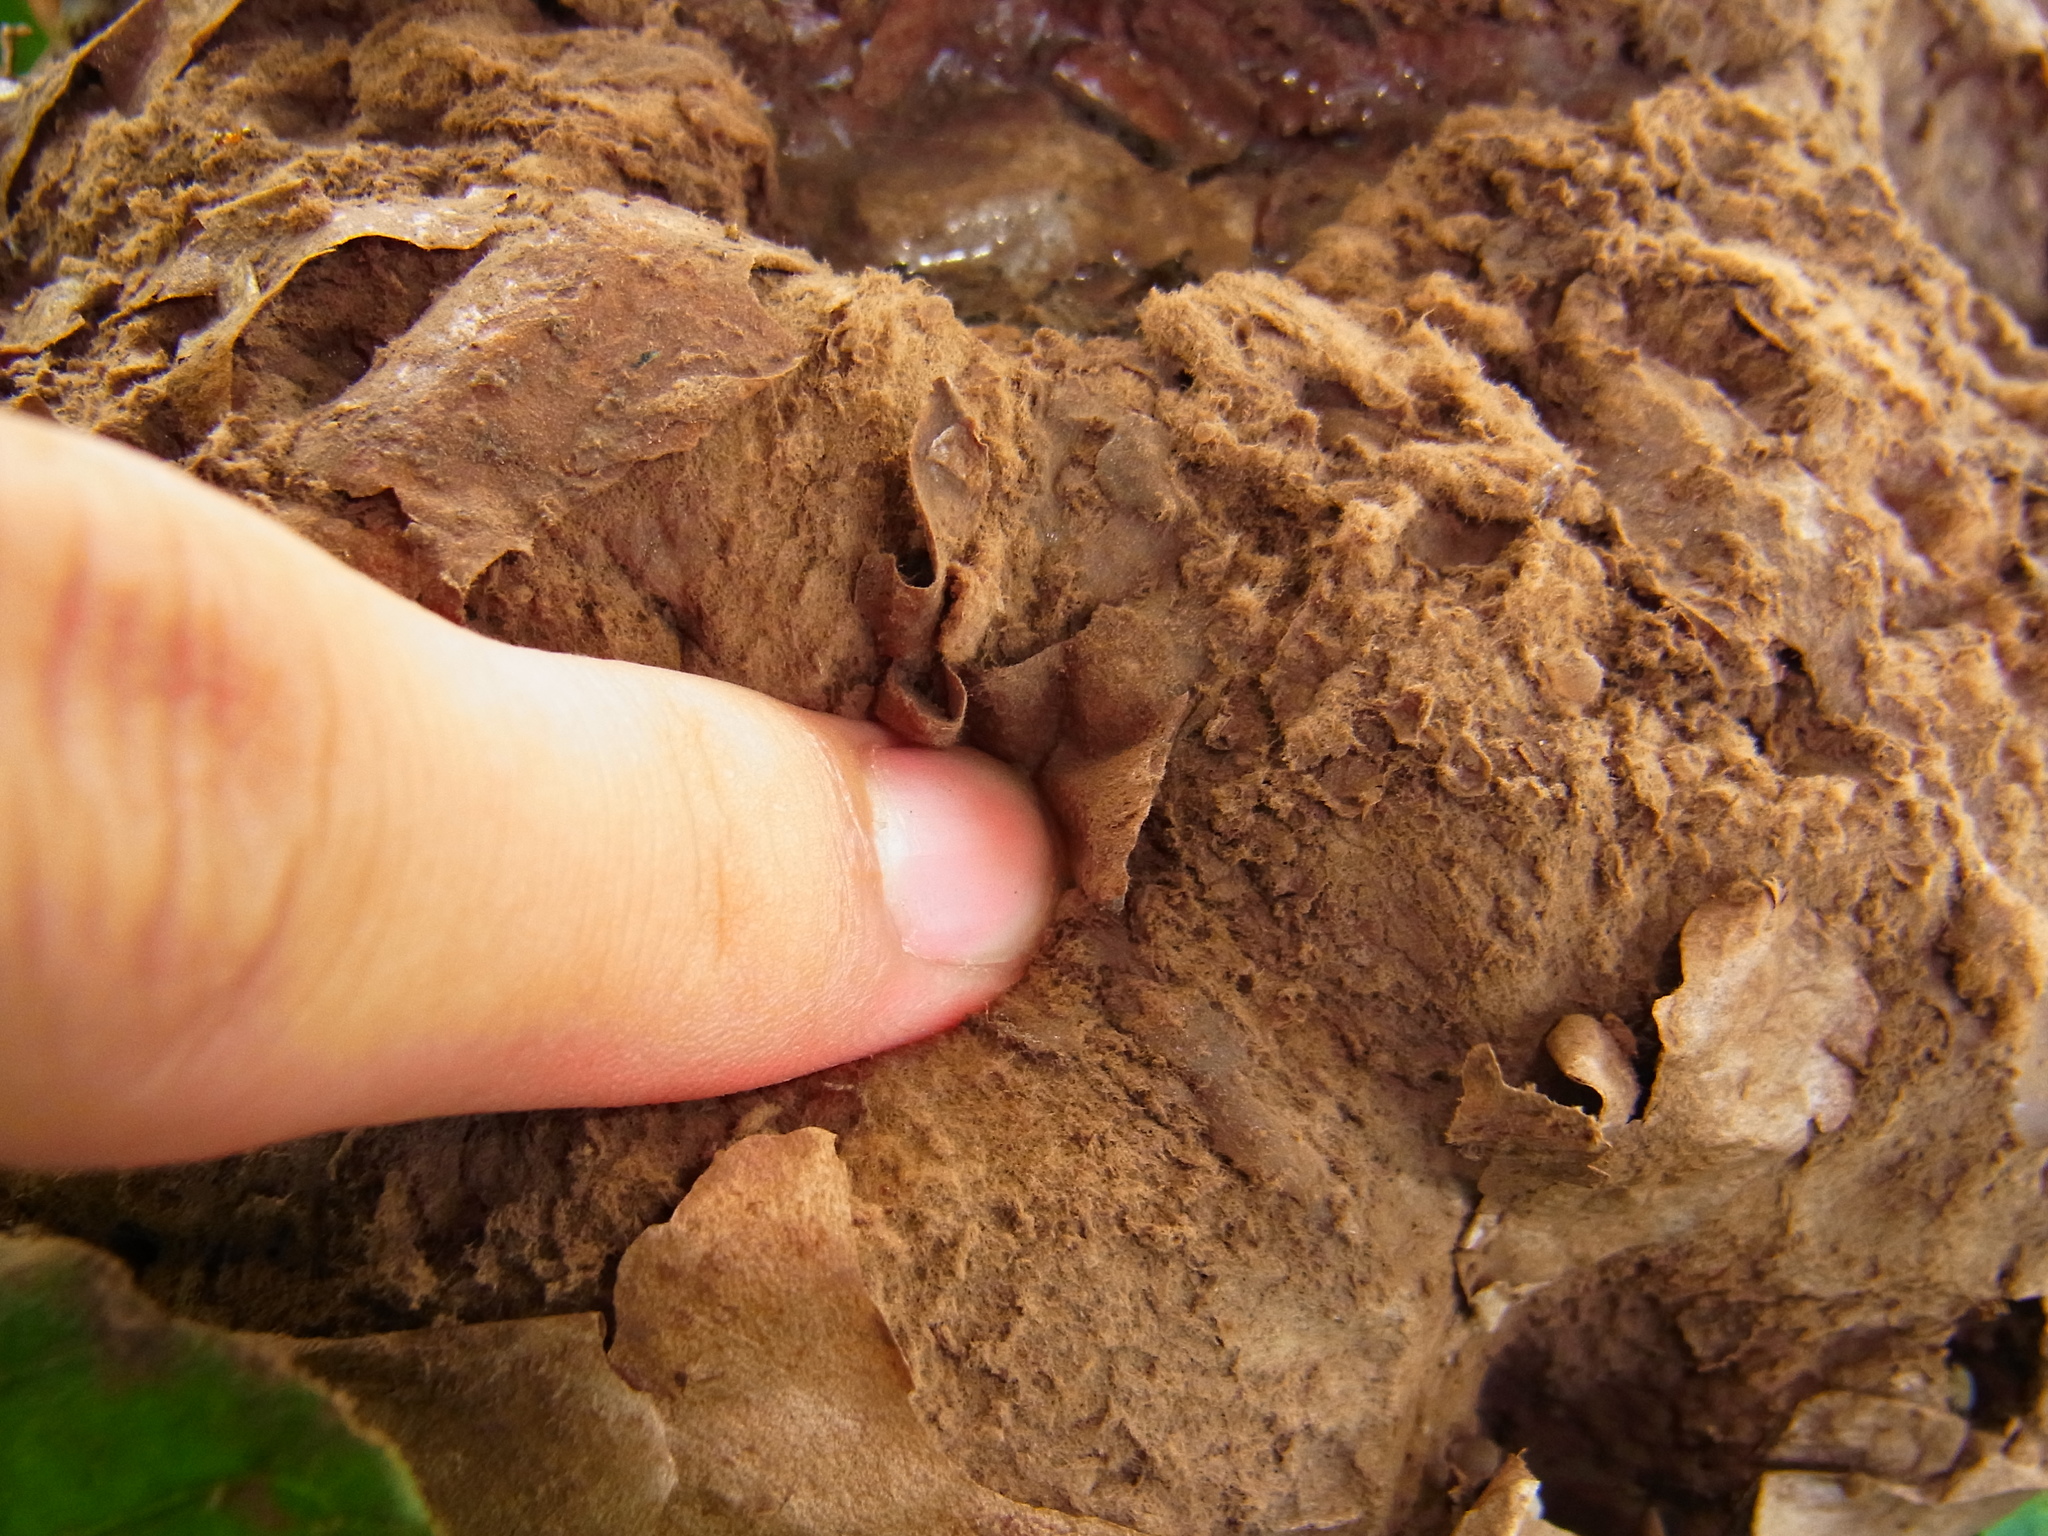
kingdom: Fungi
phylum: Basidiomycota
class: Agaricomycetes
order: Agaricales
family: Lycoperdaceae
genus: Calvatia
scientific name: Calvatia nipponica
